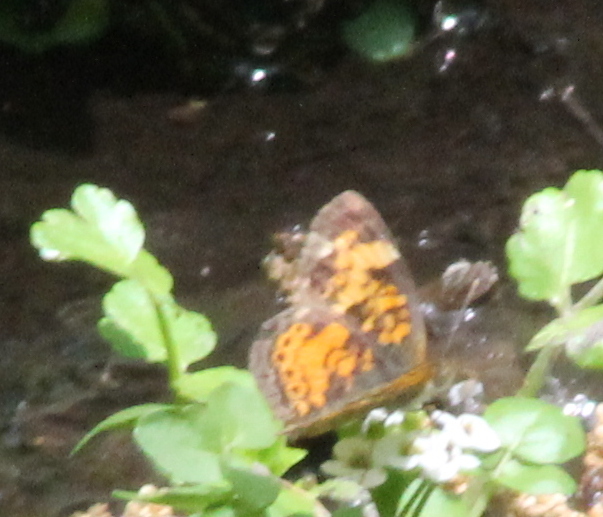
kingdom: Animalia
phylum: Arthropoda
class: Insecta
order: Lepidoptera
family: Nymphalidae
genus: Phyciodes
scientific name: Phyciodes tharos
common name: Pearl crescent
